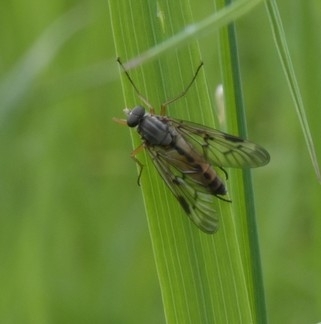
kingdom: Animalia
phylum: Arthropoda
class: Insecta
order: Diptera
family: Rhagionidae
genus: Rhagio
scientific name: Rhagio scolopacea
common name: Downlooker snipefly
